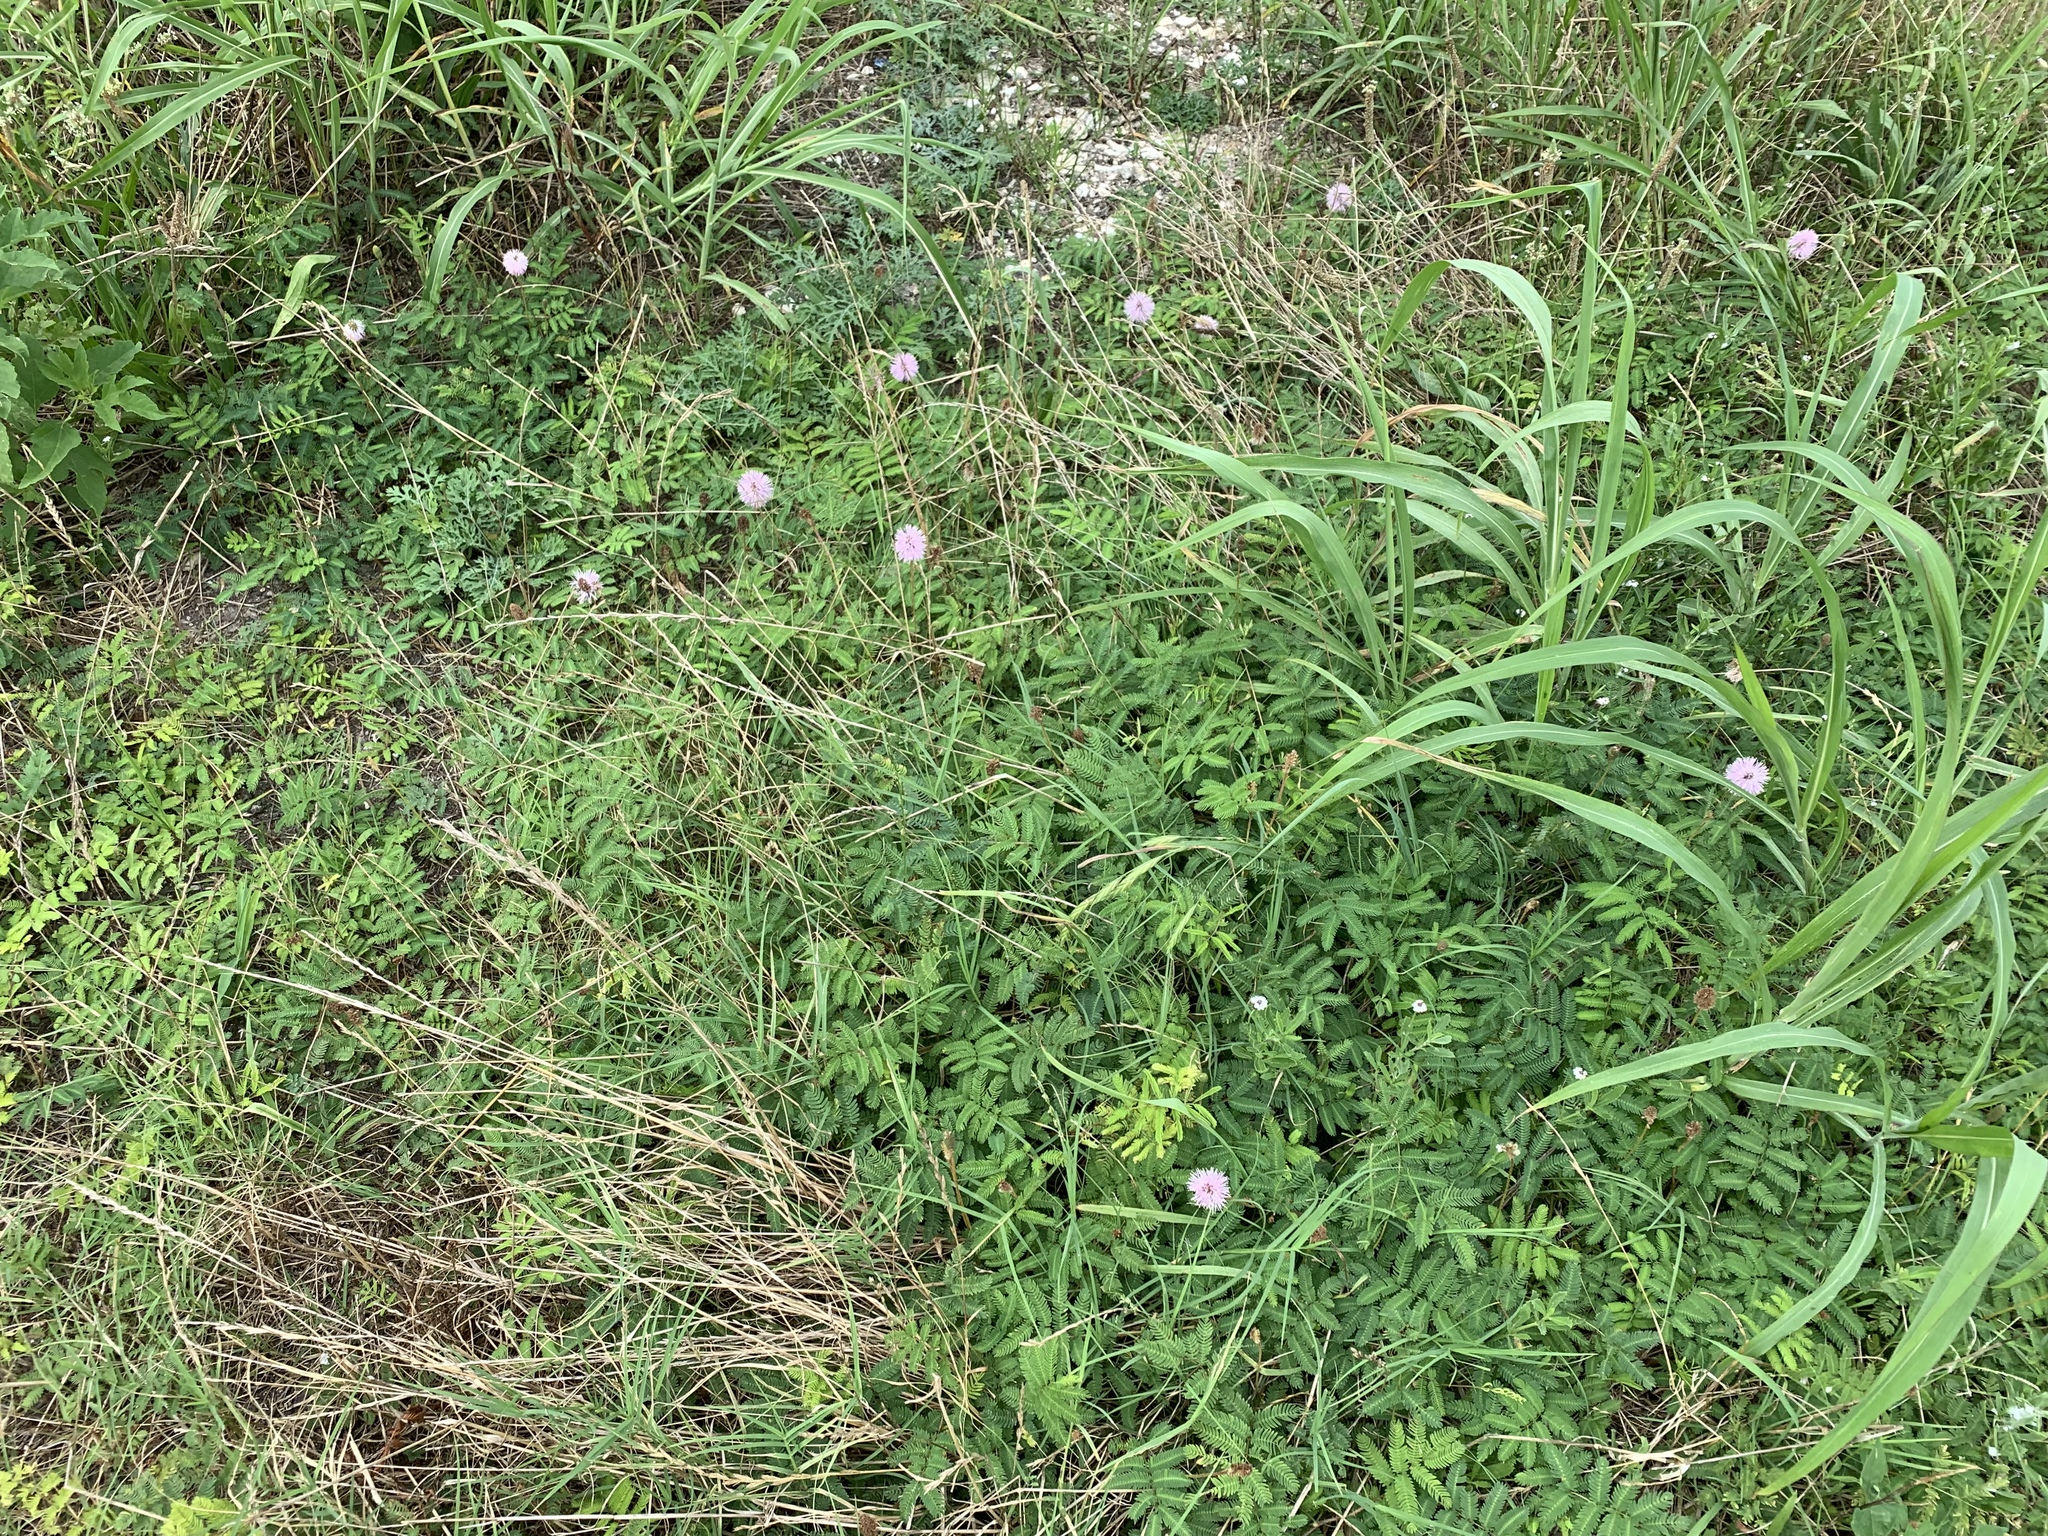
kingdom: Plantae
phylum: Tracheophyta
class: Magnoliopsida
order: Fabales
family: Fabaceae
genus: Mimosa
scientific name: Mimosa strigillosa
